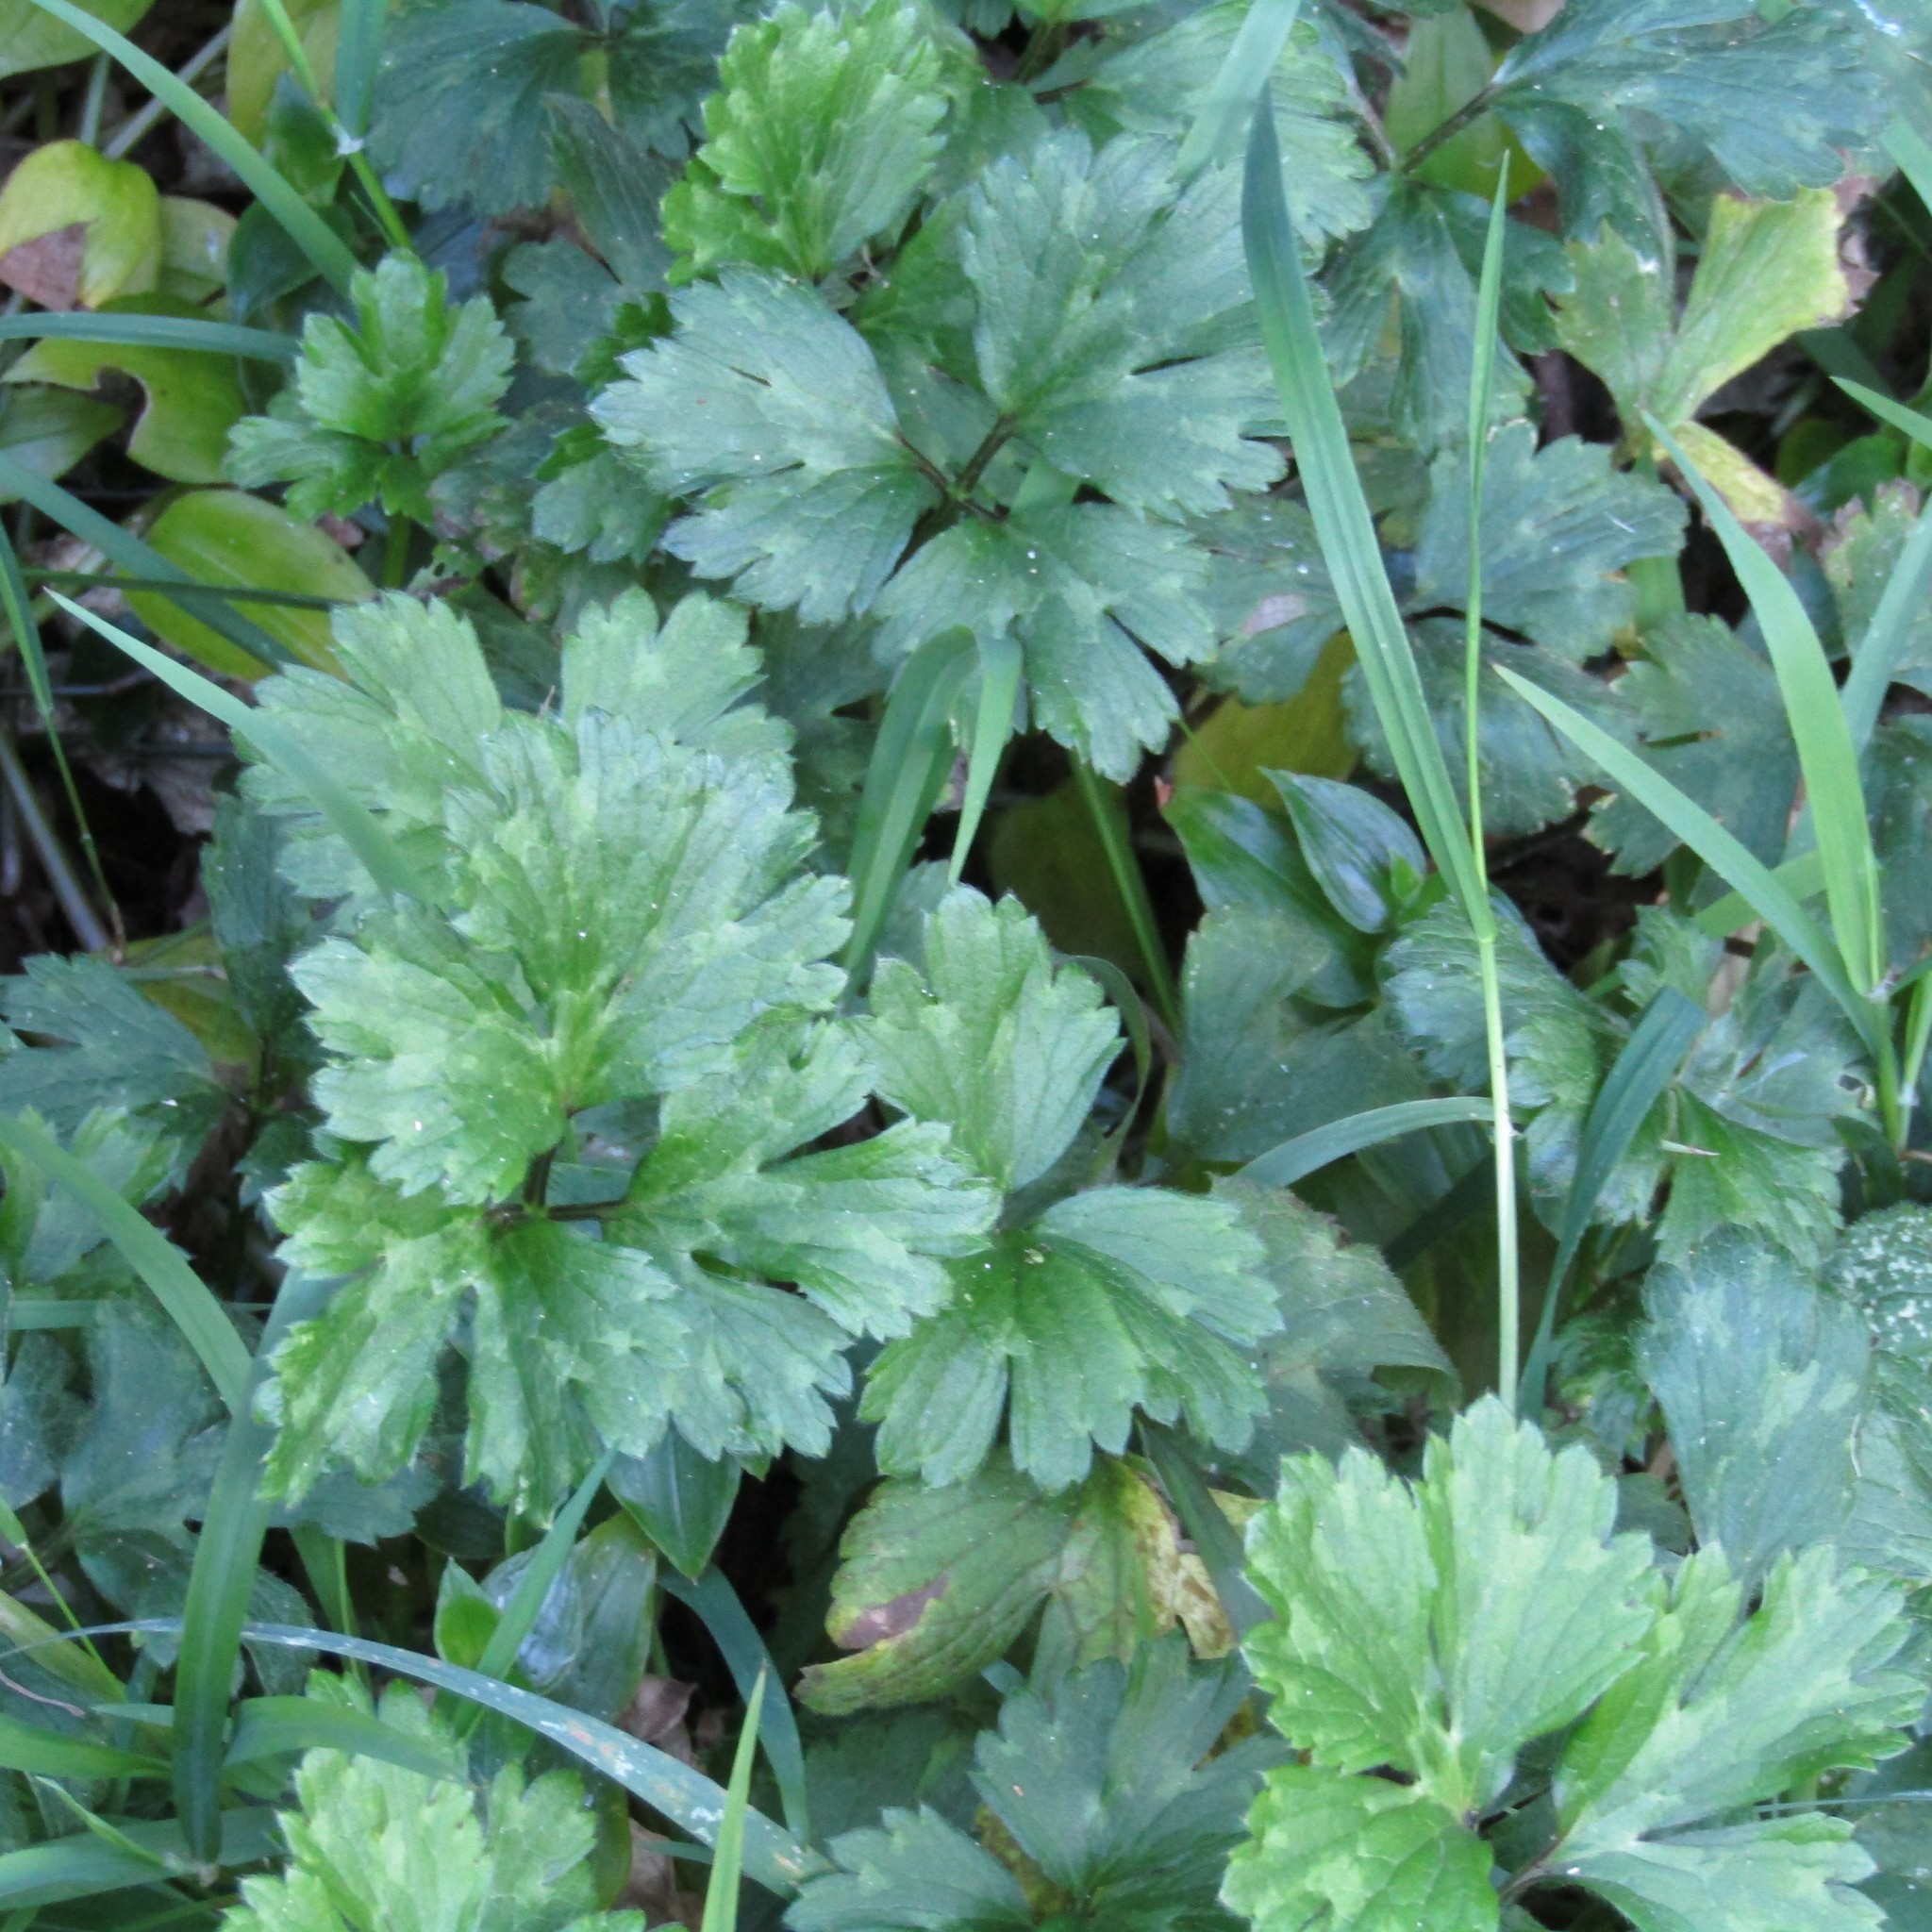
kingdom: Plantae
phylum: Tracheophyta
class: Magnoliopsida
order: Ranunculales
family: Ranunculaceae
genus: Ranunculus
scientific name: Ranunculus repens
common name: Creeping buttercup
